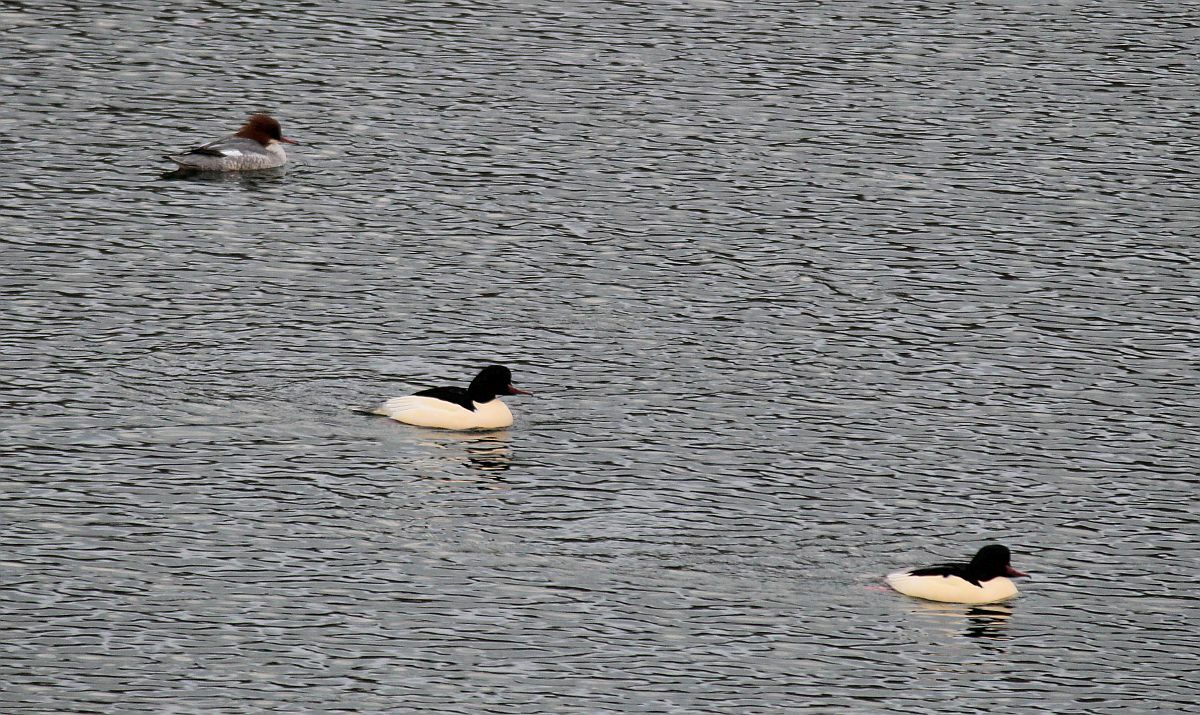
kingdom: Animalia
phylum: Chordata
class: Aves
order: Anseriformes
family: Anatidae
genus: Mergus
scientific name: Mergus merganser
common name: Common merganser
